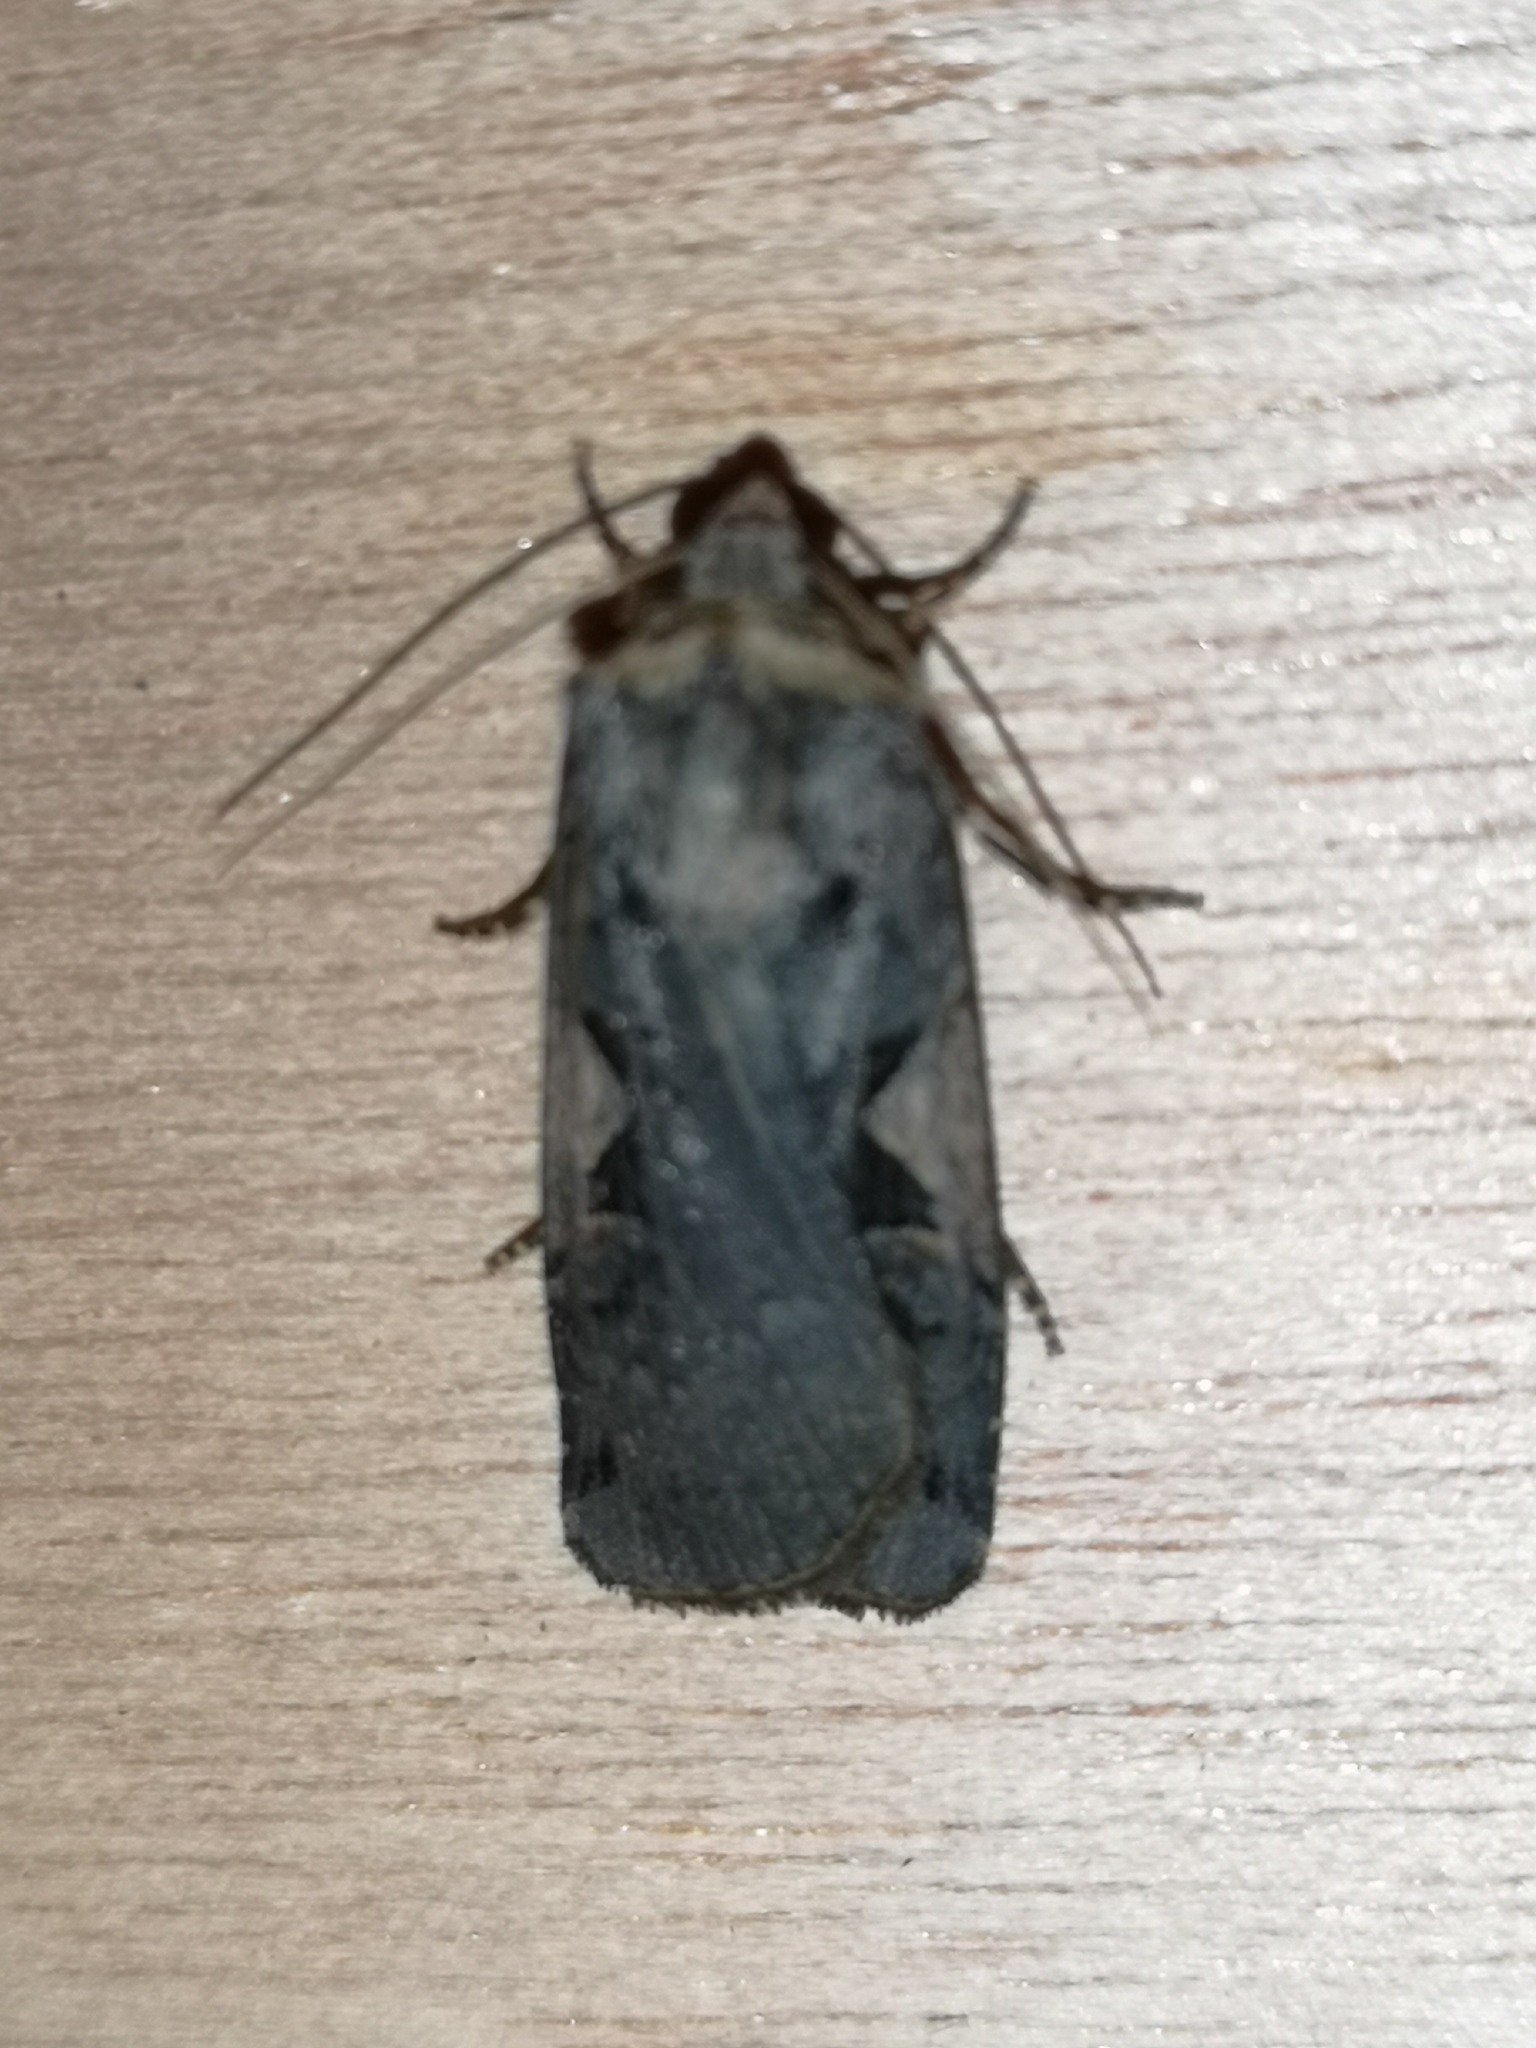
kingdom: Animalia
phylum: Arthropoda
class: Insecta
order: Lepidoptera
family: Noctuidae
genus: Xestia
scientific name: Xestia c-nigrum
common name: Setaceous hebrew character
